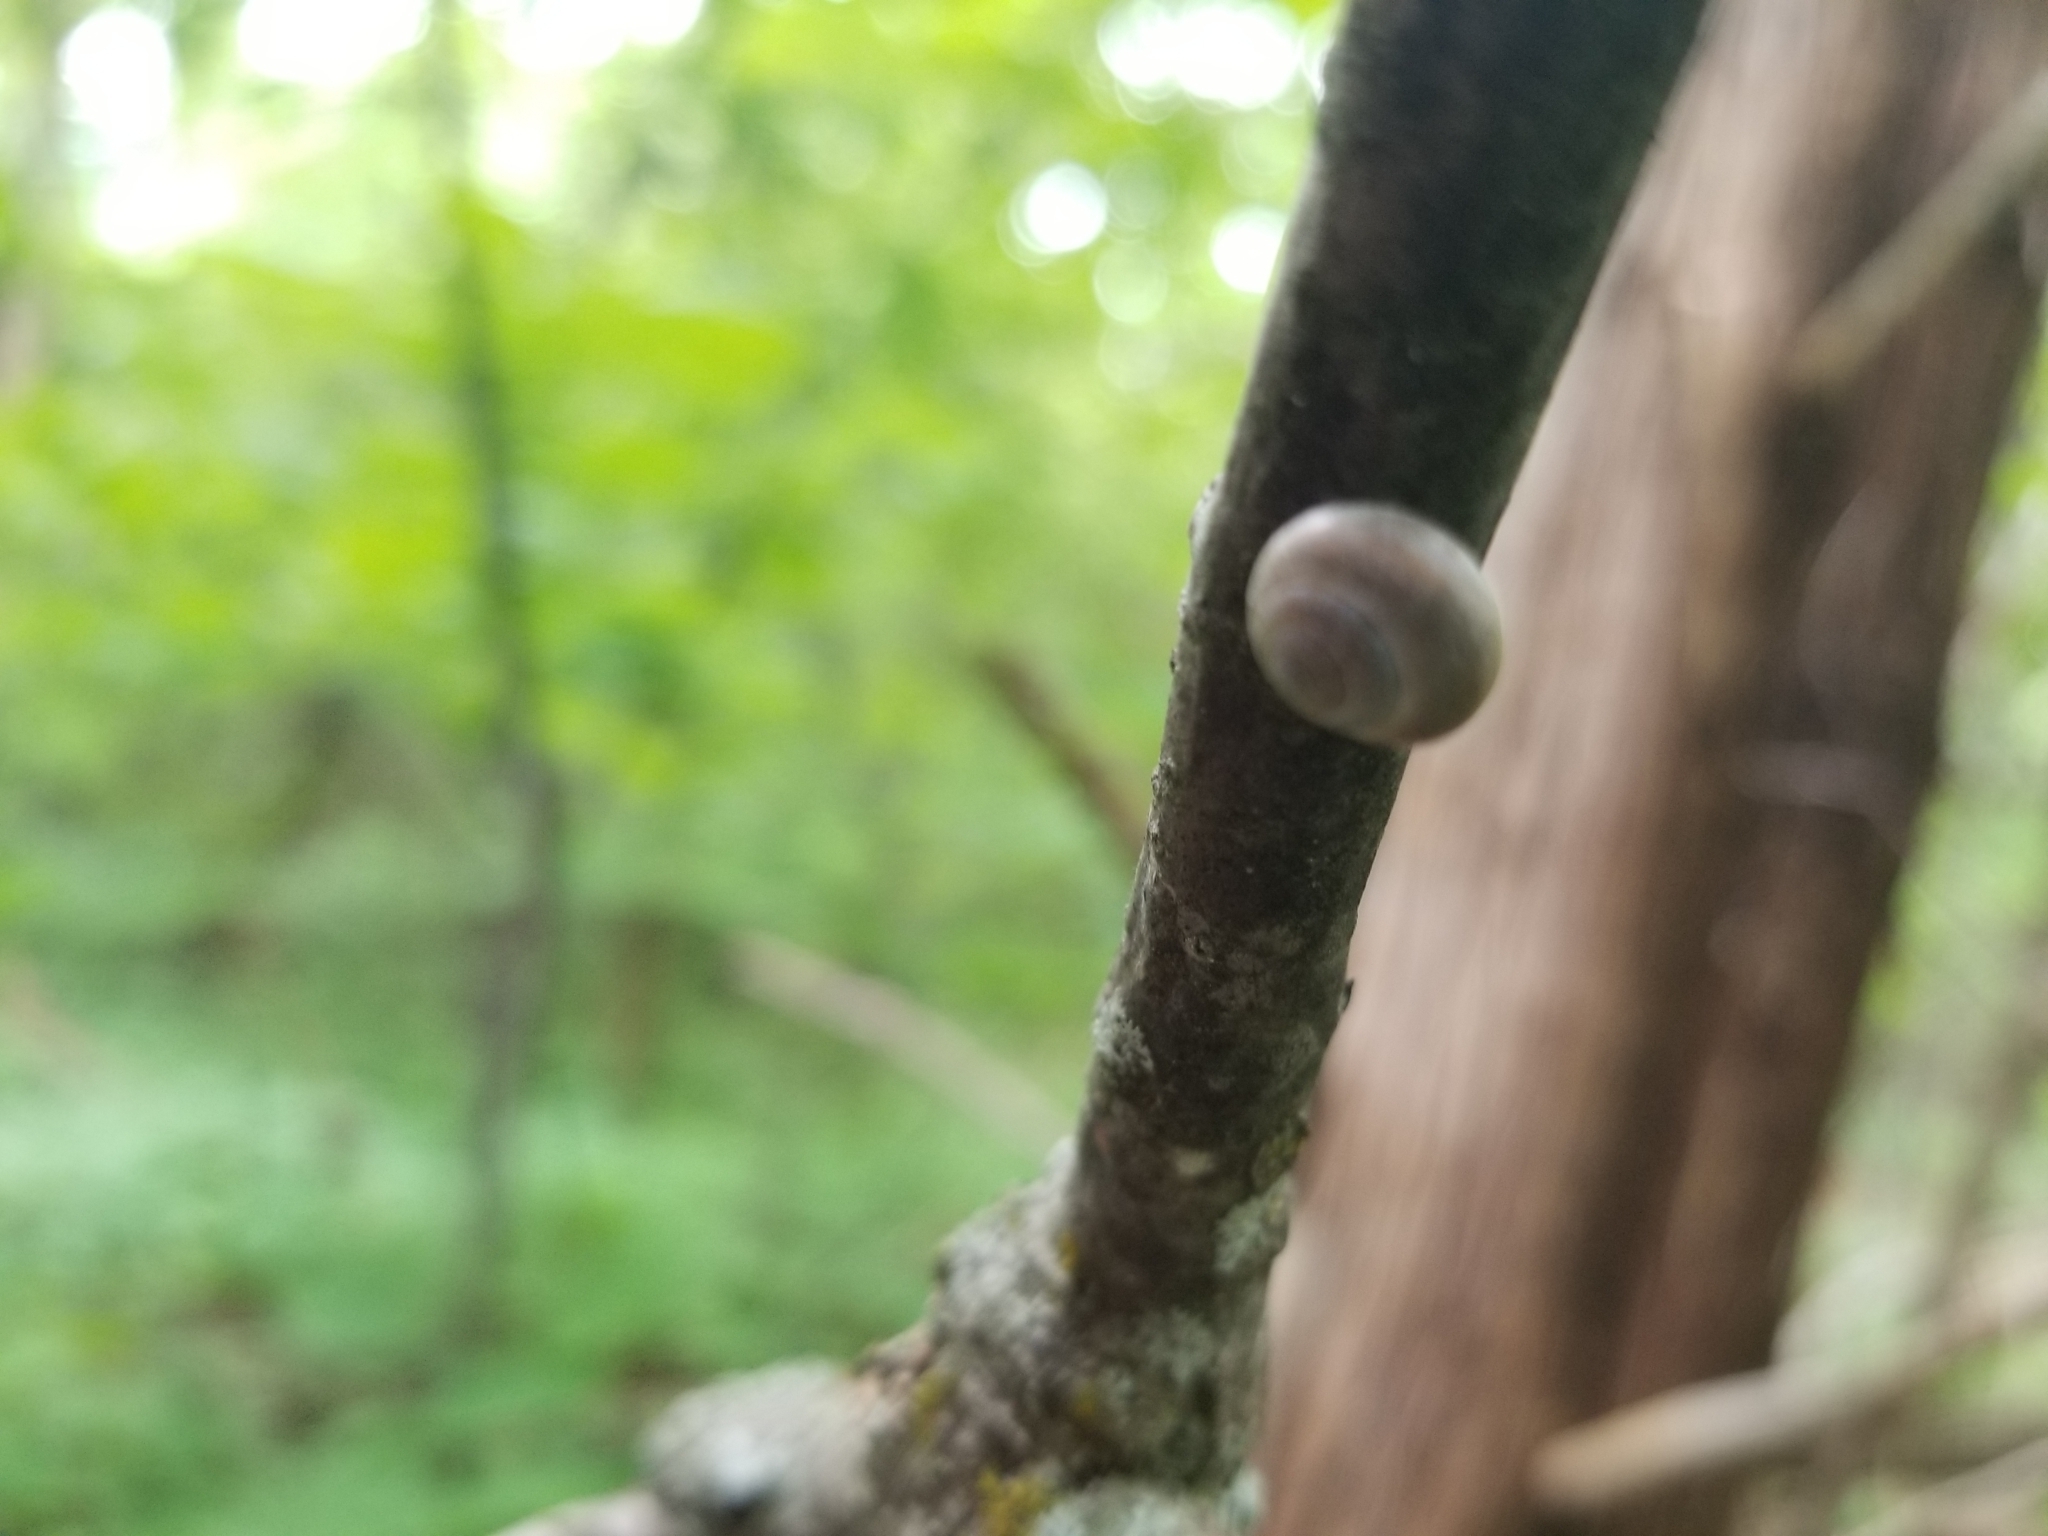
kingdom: Animalia
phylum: Mollusca
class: Gastropoda
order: Cycloneritida
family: Helicinidae
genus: Helicina
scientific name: Helicina orbiculata
